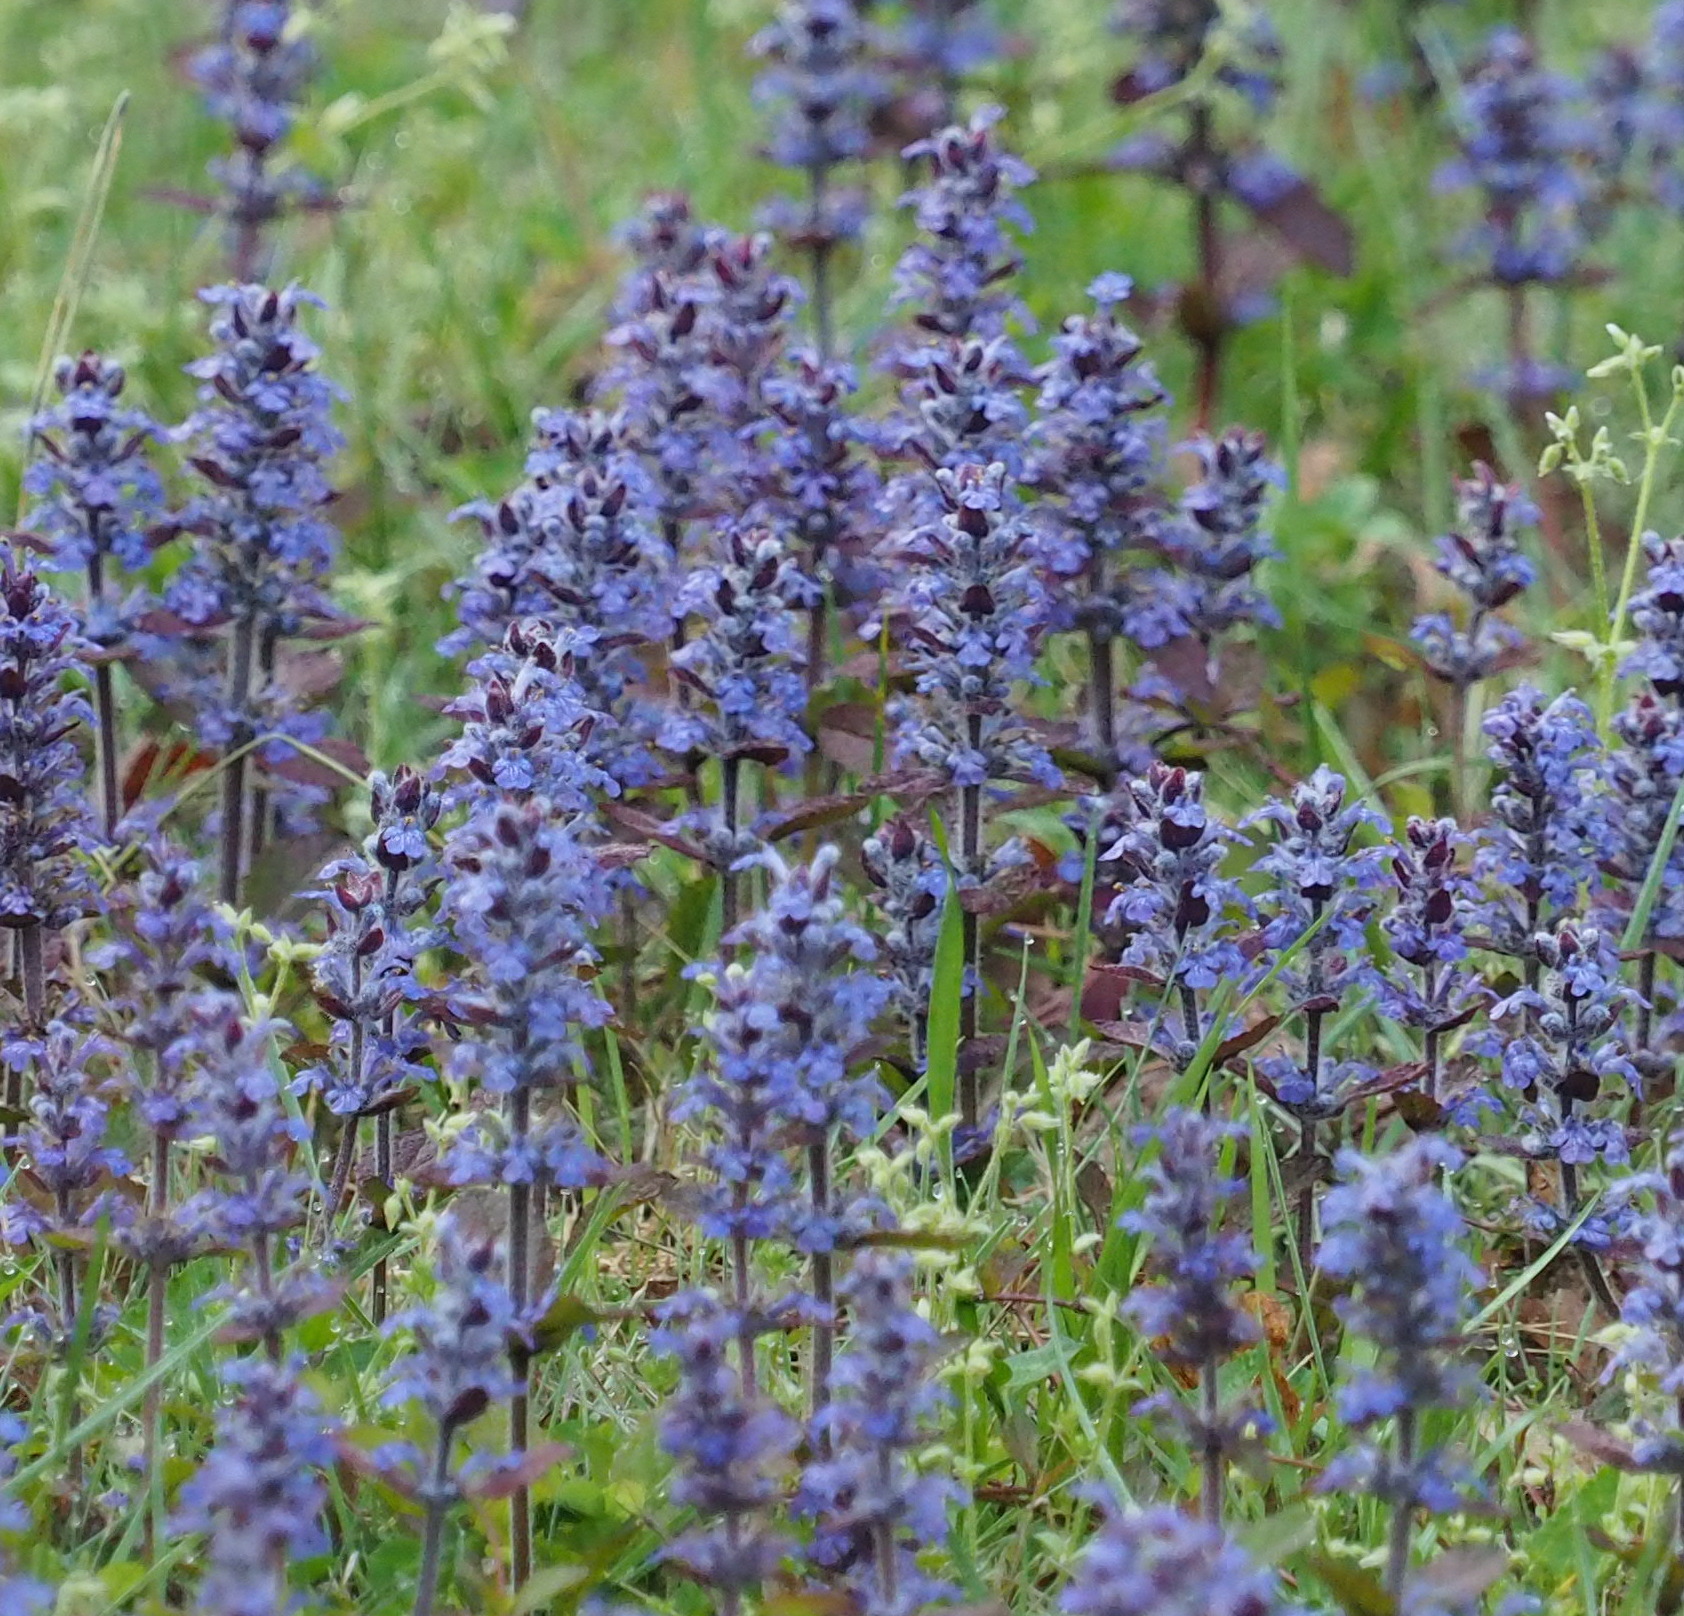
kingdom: Plantae
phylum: Tracheophyta
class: Magnoliopsida
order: Lamiales
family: Lamiaceae
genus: Ajuga
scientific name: Ajuga reptans
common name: Bugle
